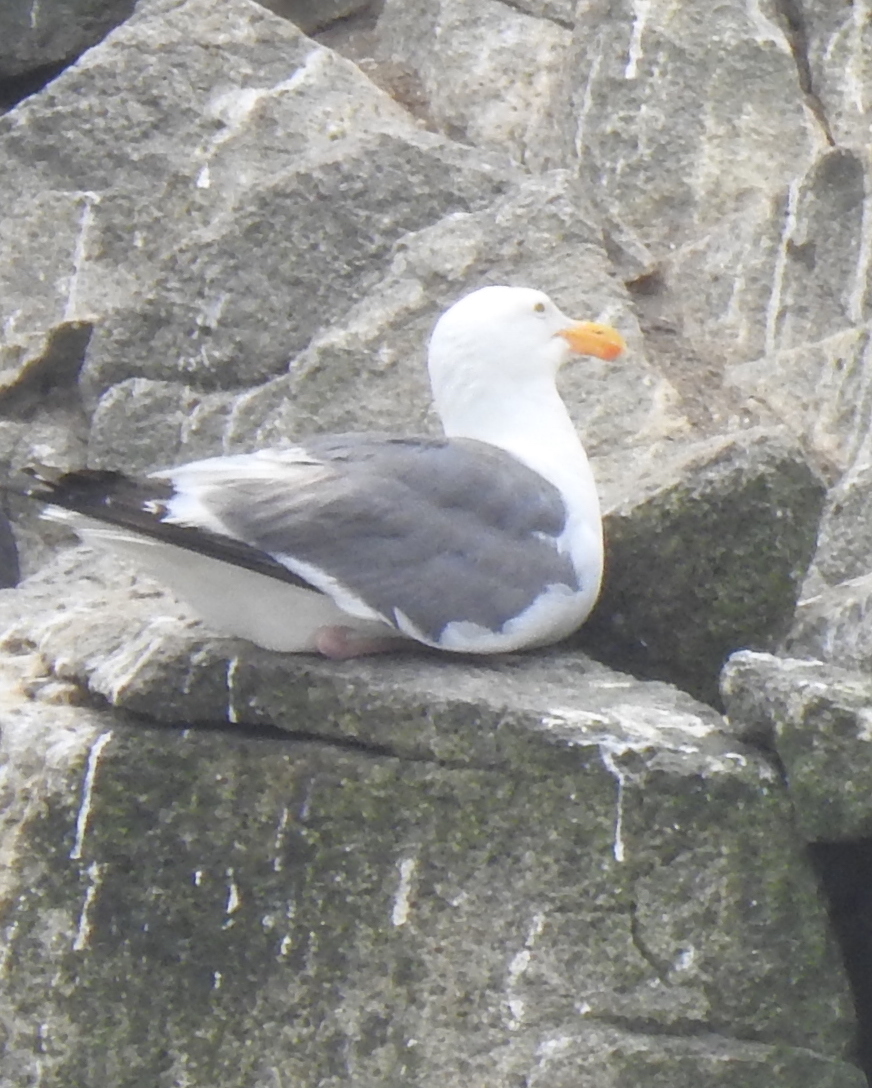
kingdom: Animalia
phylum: Chordata
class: Aves
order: Charadriiformes
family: Laridae
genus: Larus
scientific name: Larus occidentalis
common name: Western gull
